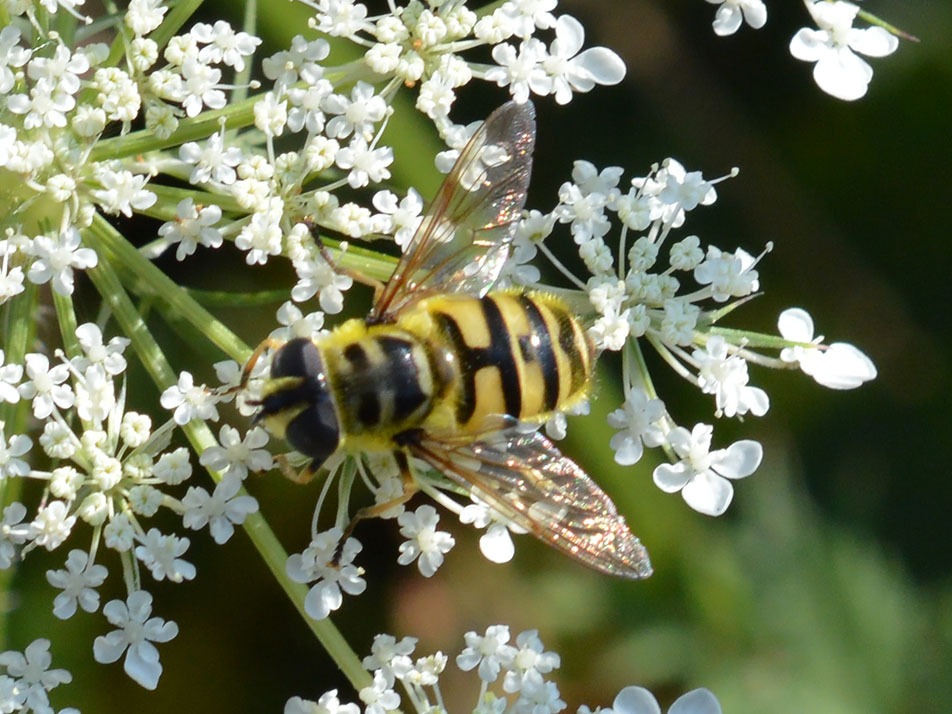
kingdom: Animalia
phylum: Arthropoda
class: Insecta
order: Diptera
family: Syrphidae
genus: Myathropa
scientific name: Myathropa florea
